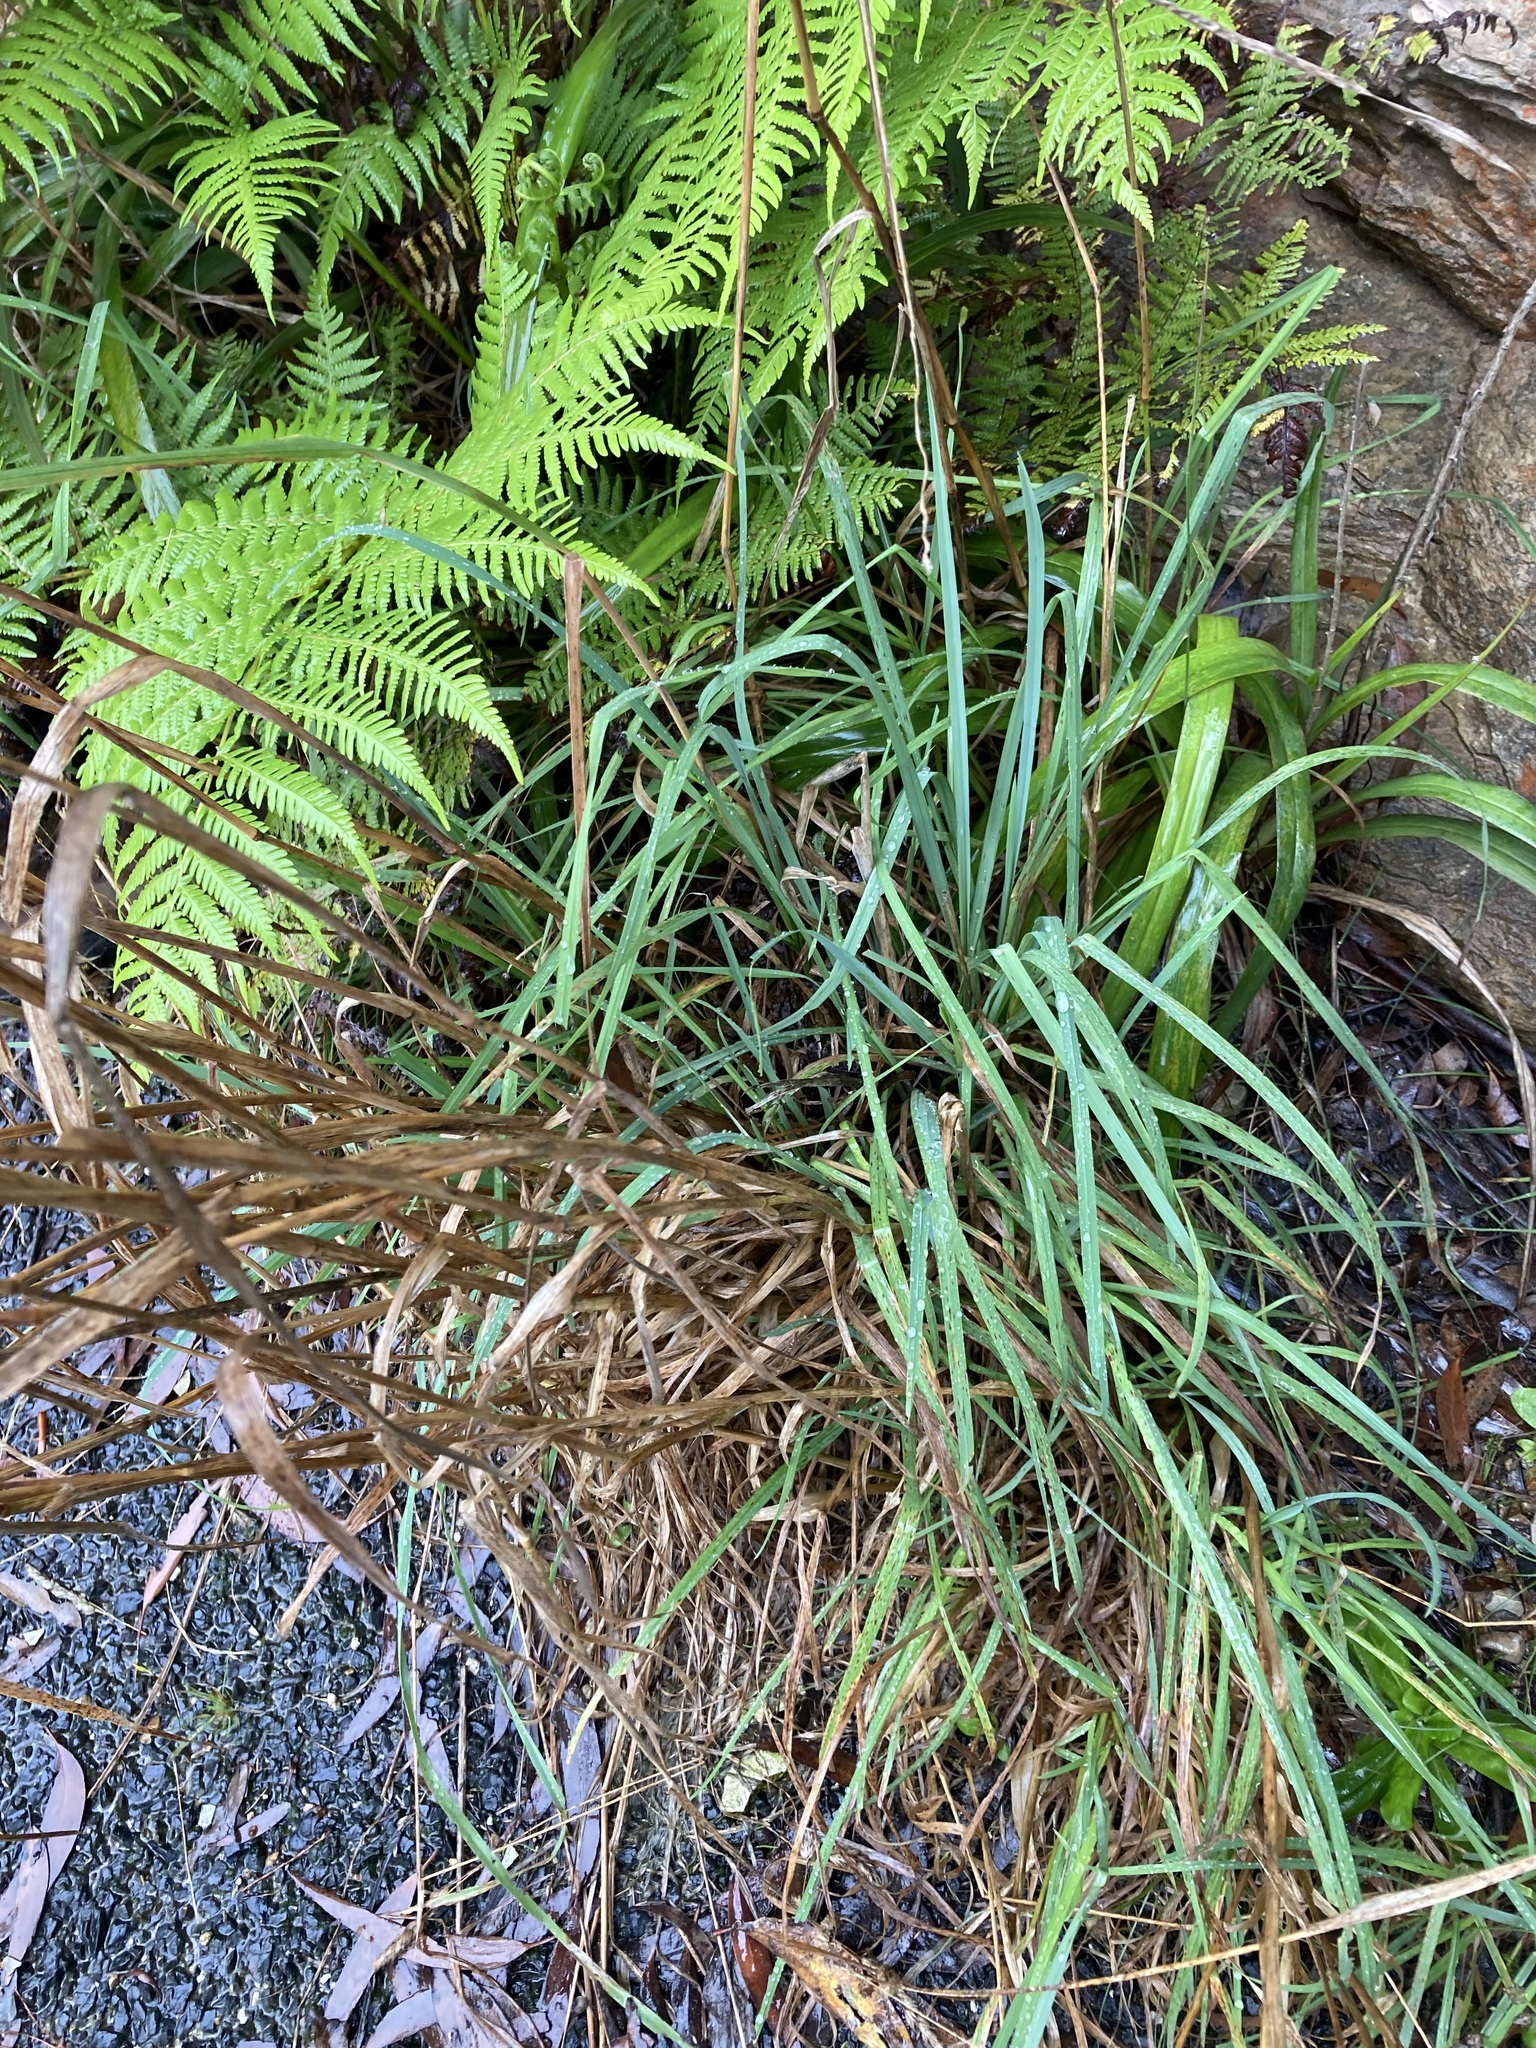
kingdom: Plantae
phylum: Tracheophyta
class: Liliopsida
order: Poales
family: Poaceae
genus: Dactylis
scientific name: Dactylis glomerata
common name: Orchardgrass
